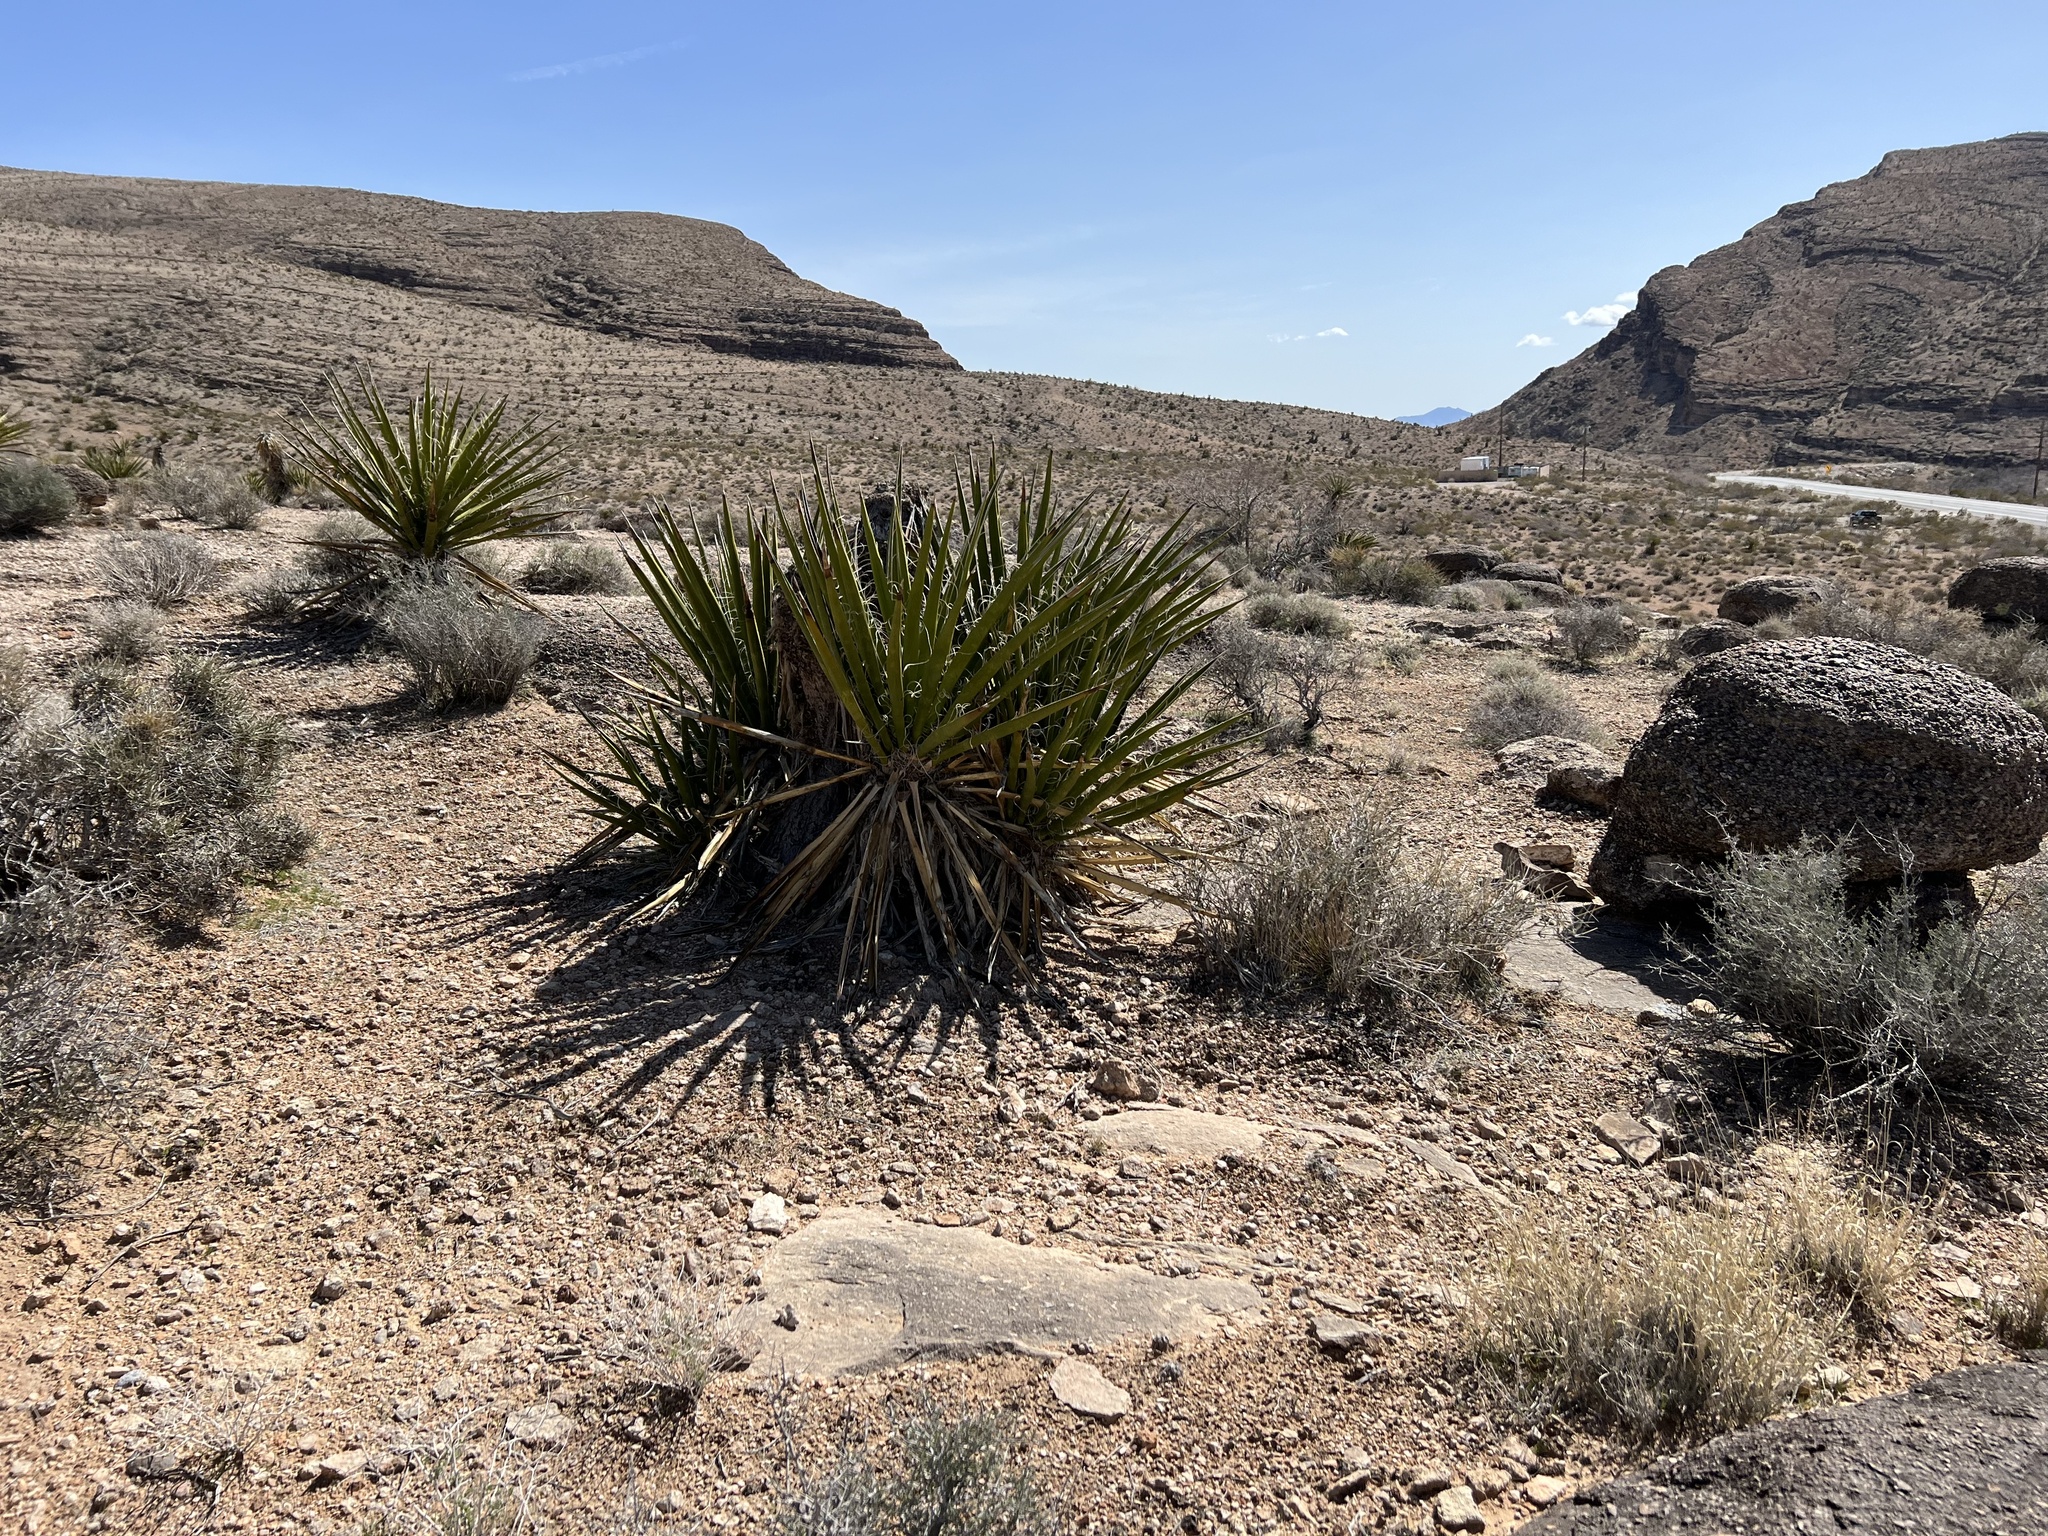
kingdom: Plantae
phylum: Tracheophyta
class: Liliopsida
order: Asparagales
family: Asparagaceae
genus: Yucca
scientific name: Yucca schidigera
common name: Mojave yucca
